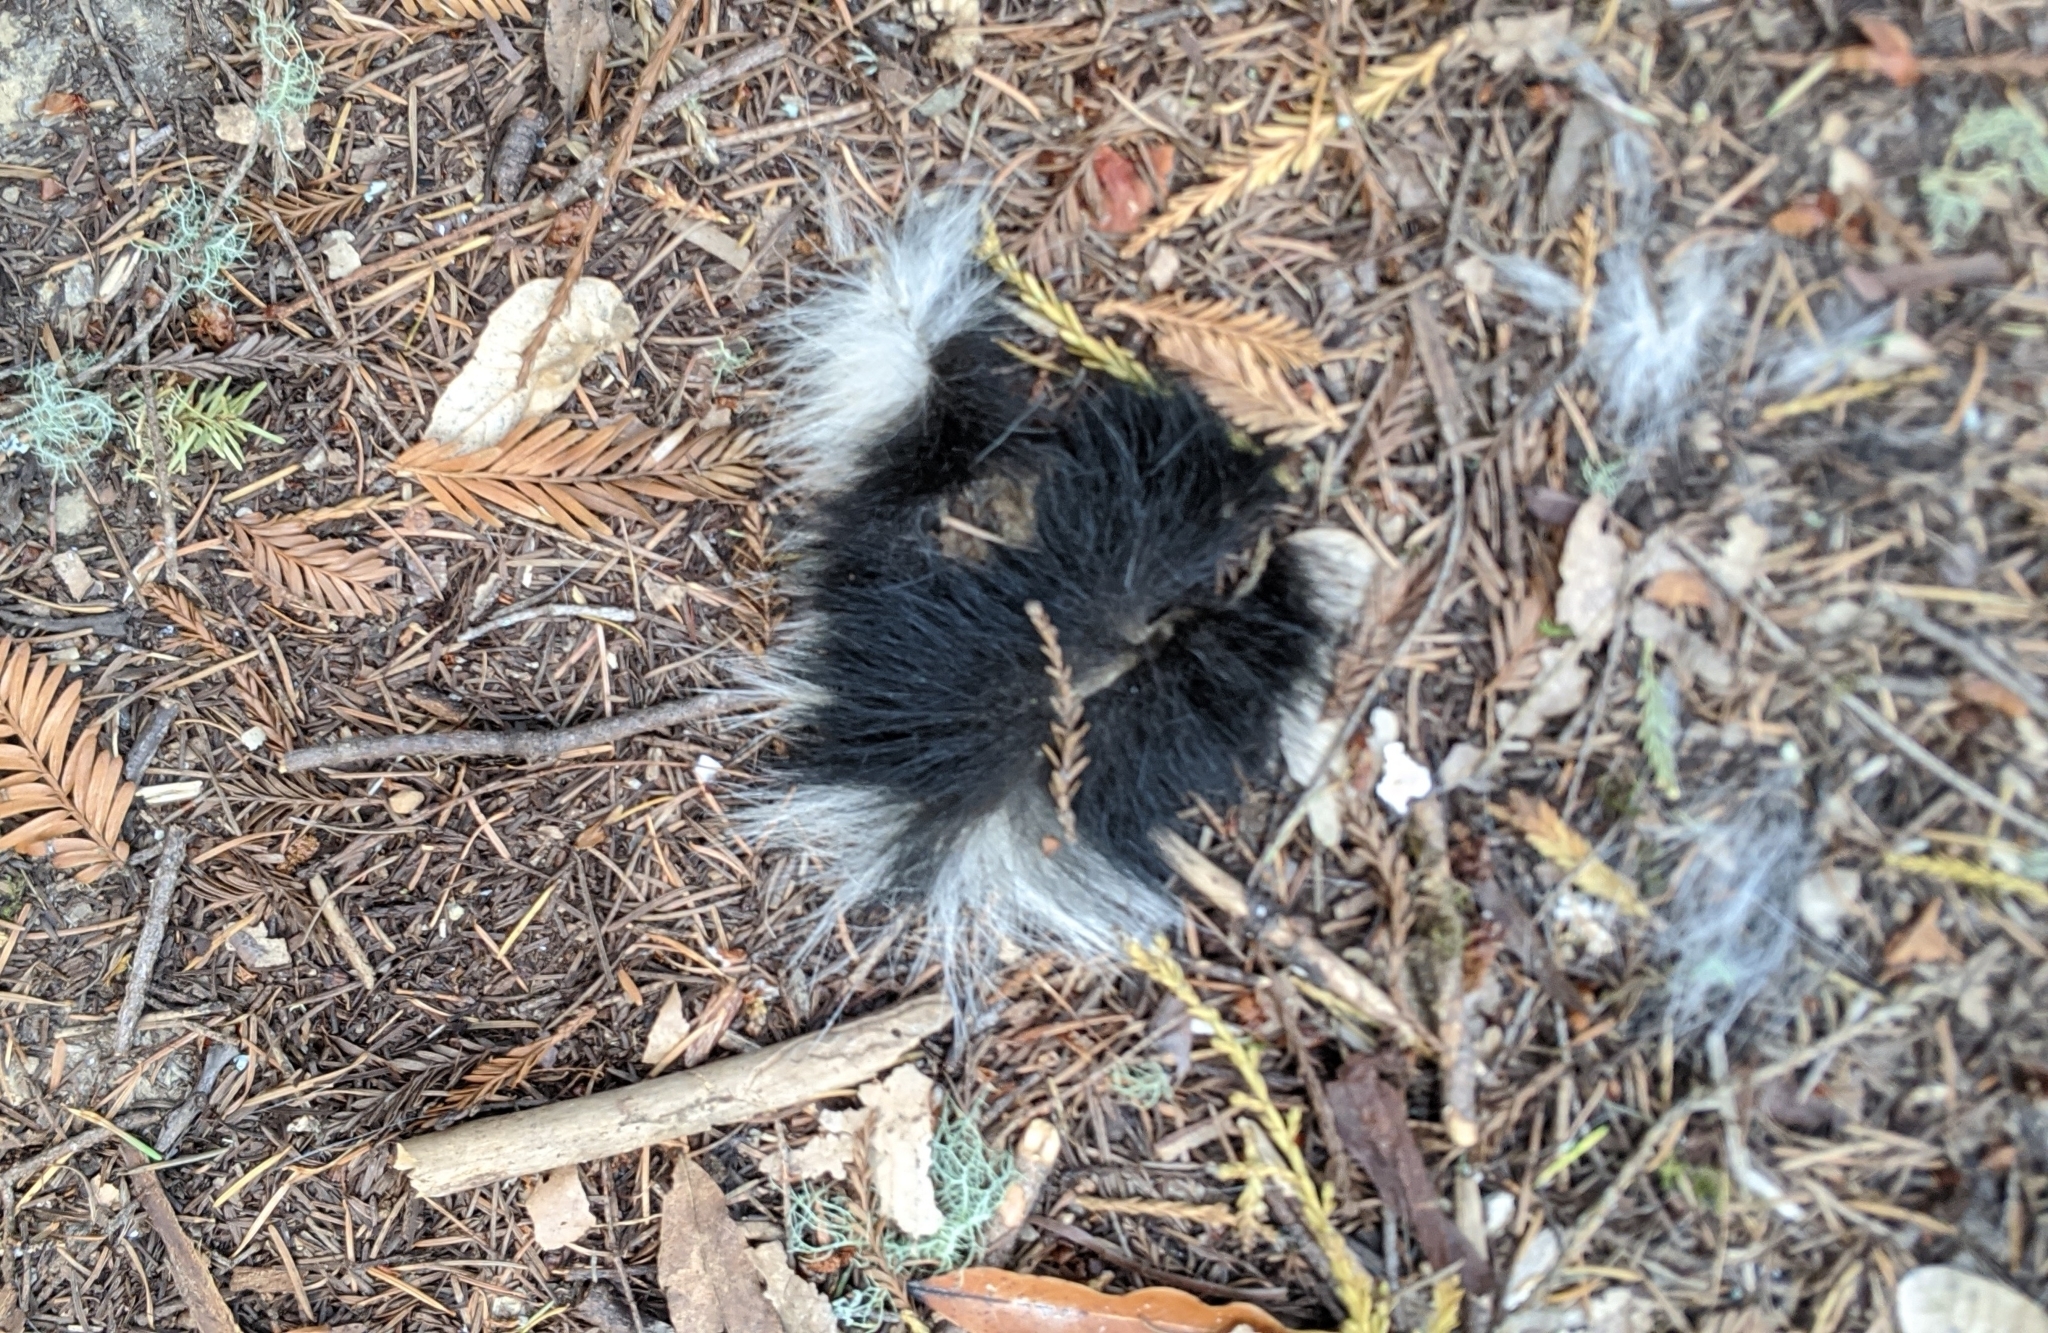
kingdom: Animalia
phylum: Chordata
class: Mammalia
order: Carnivora
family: Mephitidae
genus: Mephitis
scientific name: Mephitis mephitis
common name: Striped skunk
